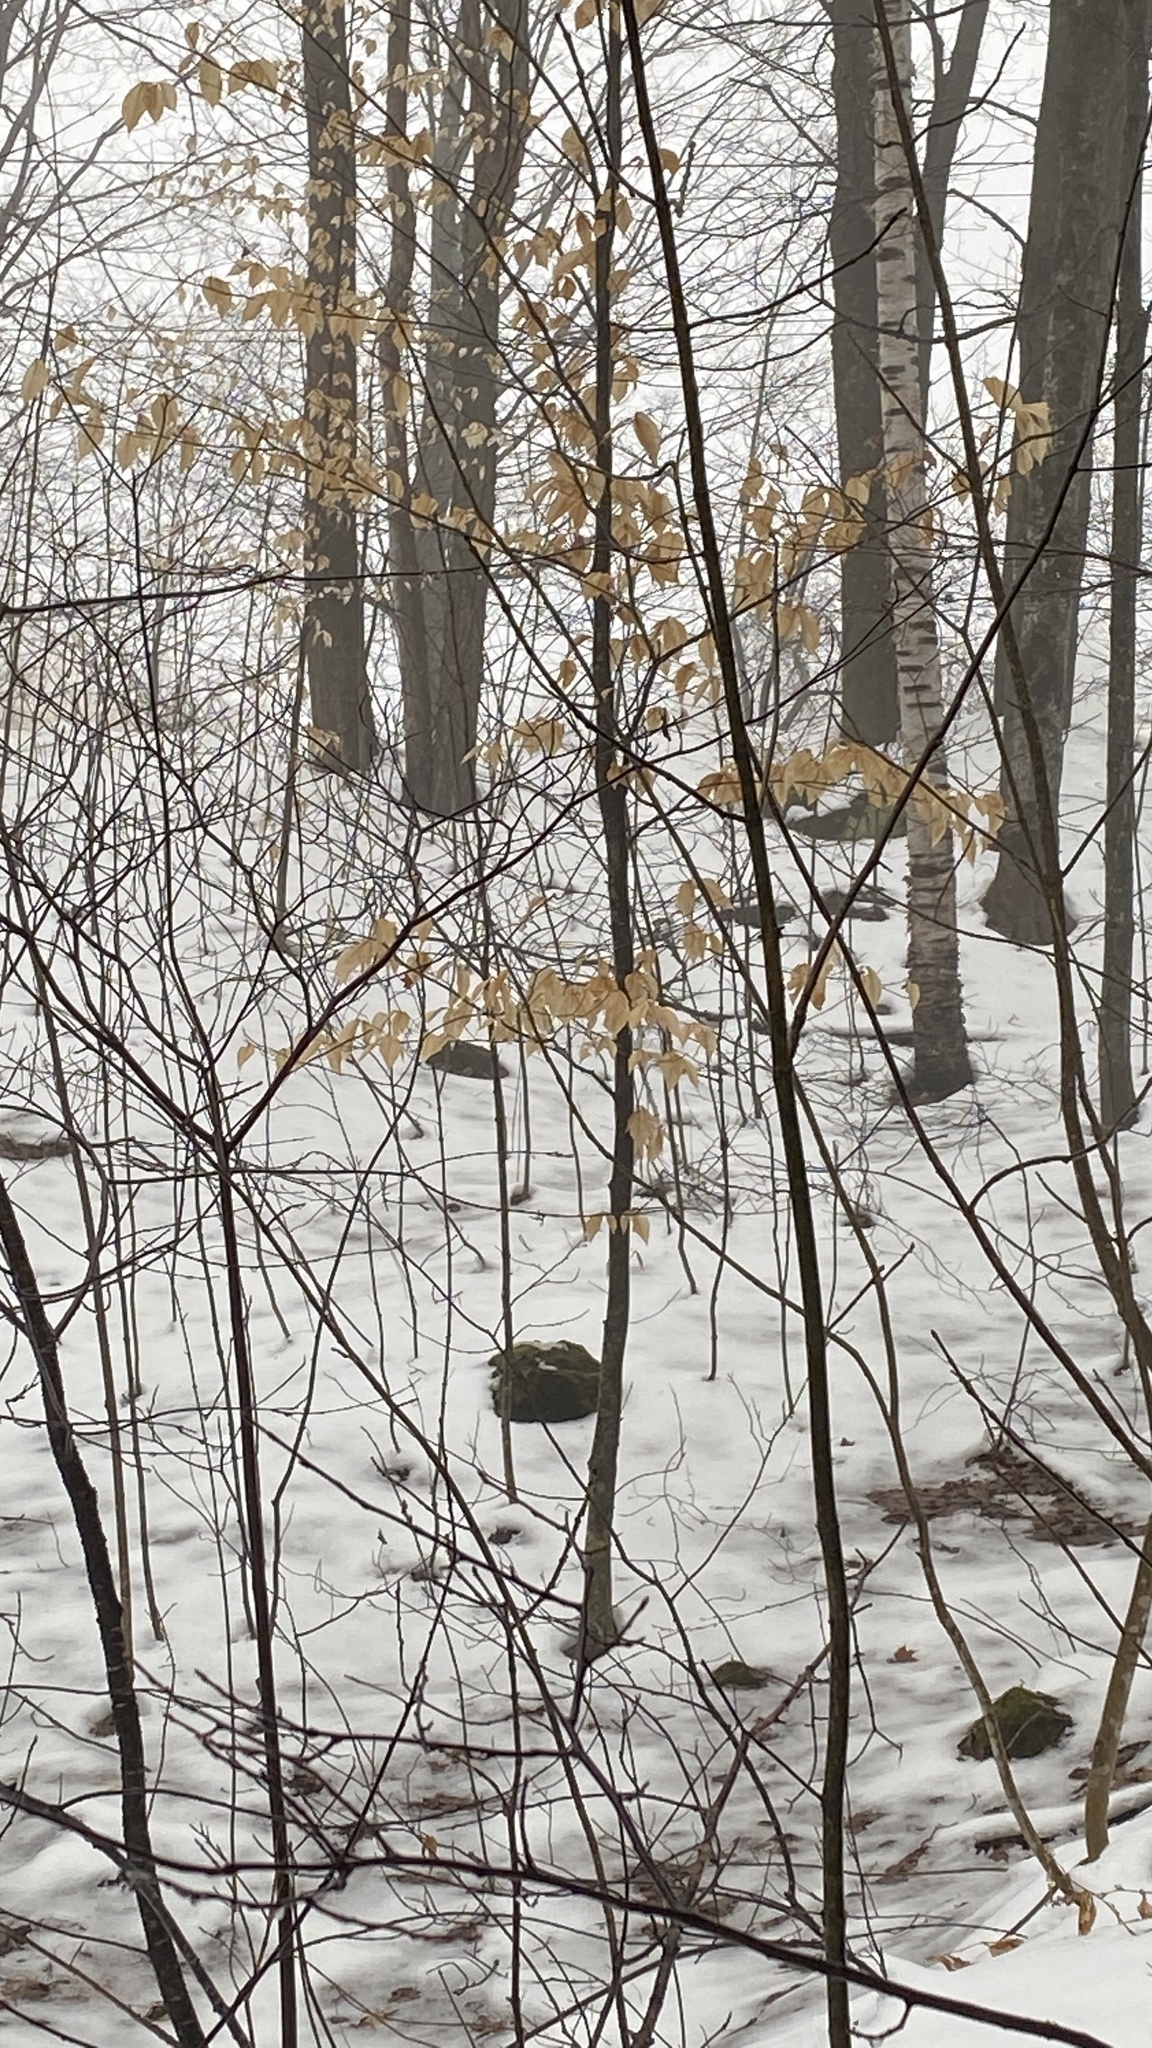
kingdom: Plantae
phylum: Tracheophyta
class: Magnoliopsida
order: Fagales
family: Fagaceae
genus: Fagus
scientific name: Fagus grandifolia
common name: American beech
